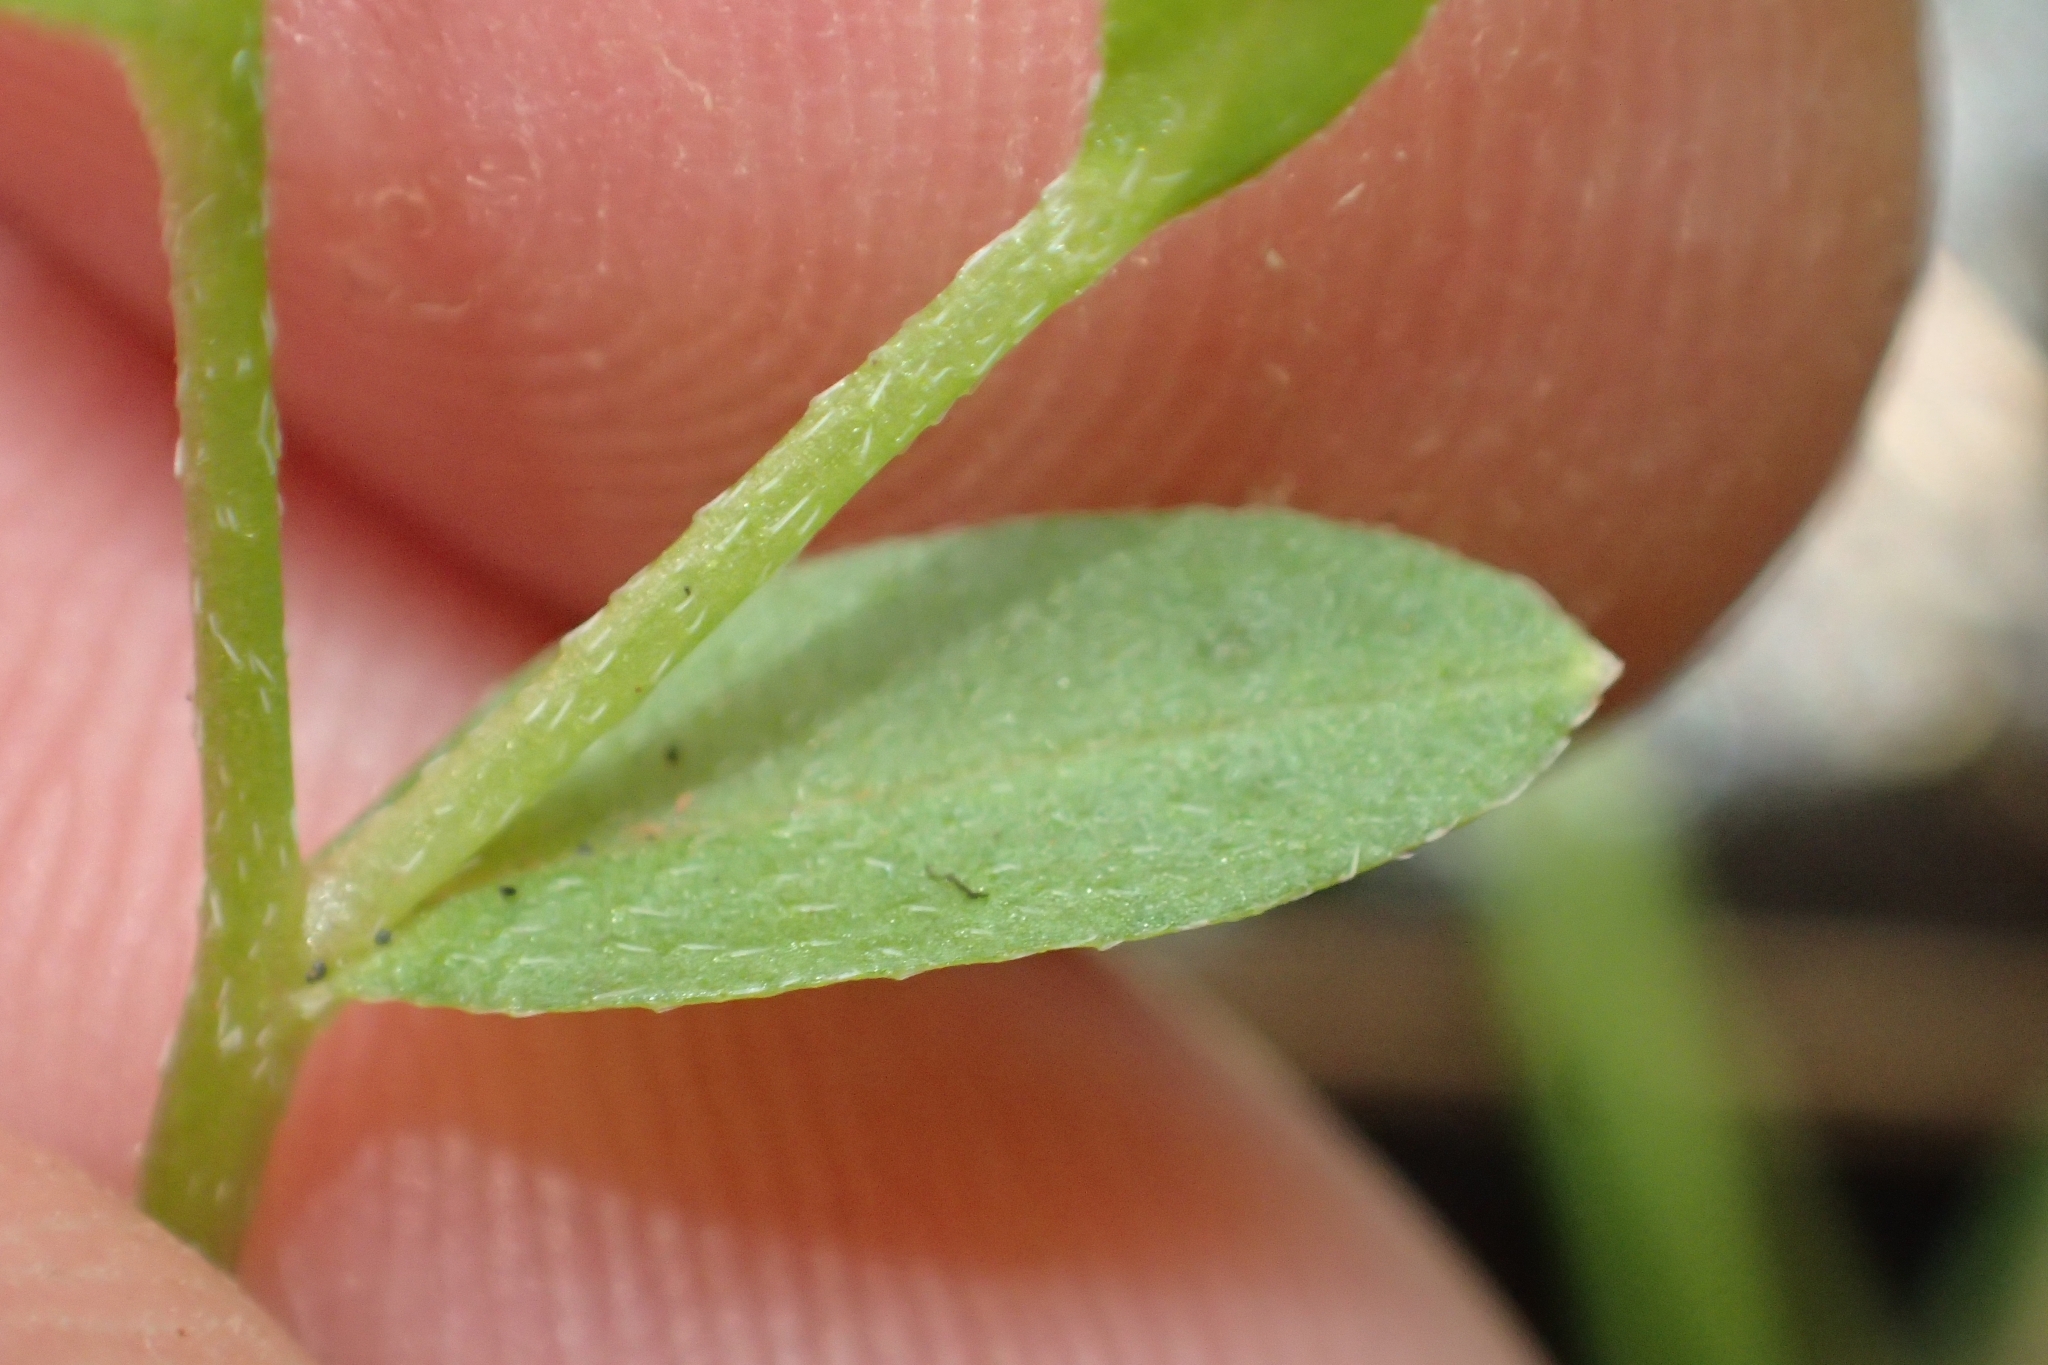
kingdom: Plantae
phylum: Tracheophyta
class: Magnoliopsida
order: Boraginales
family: Boraginaceae
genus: Myosotis
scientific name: Myosotis laxa
